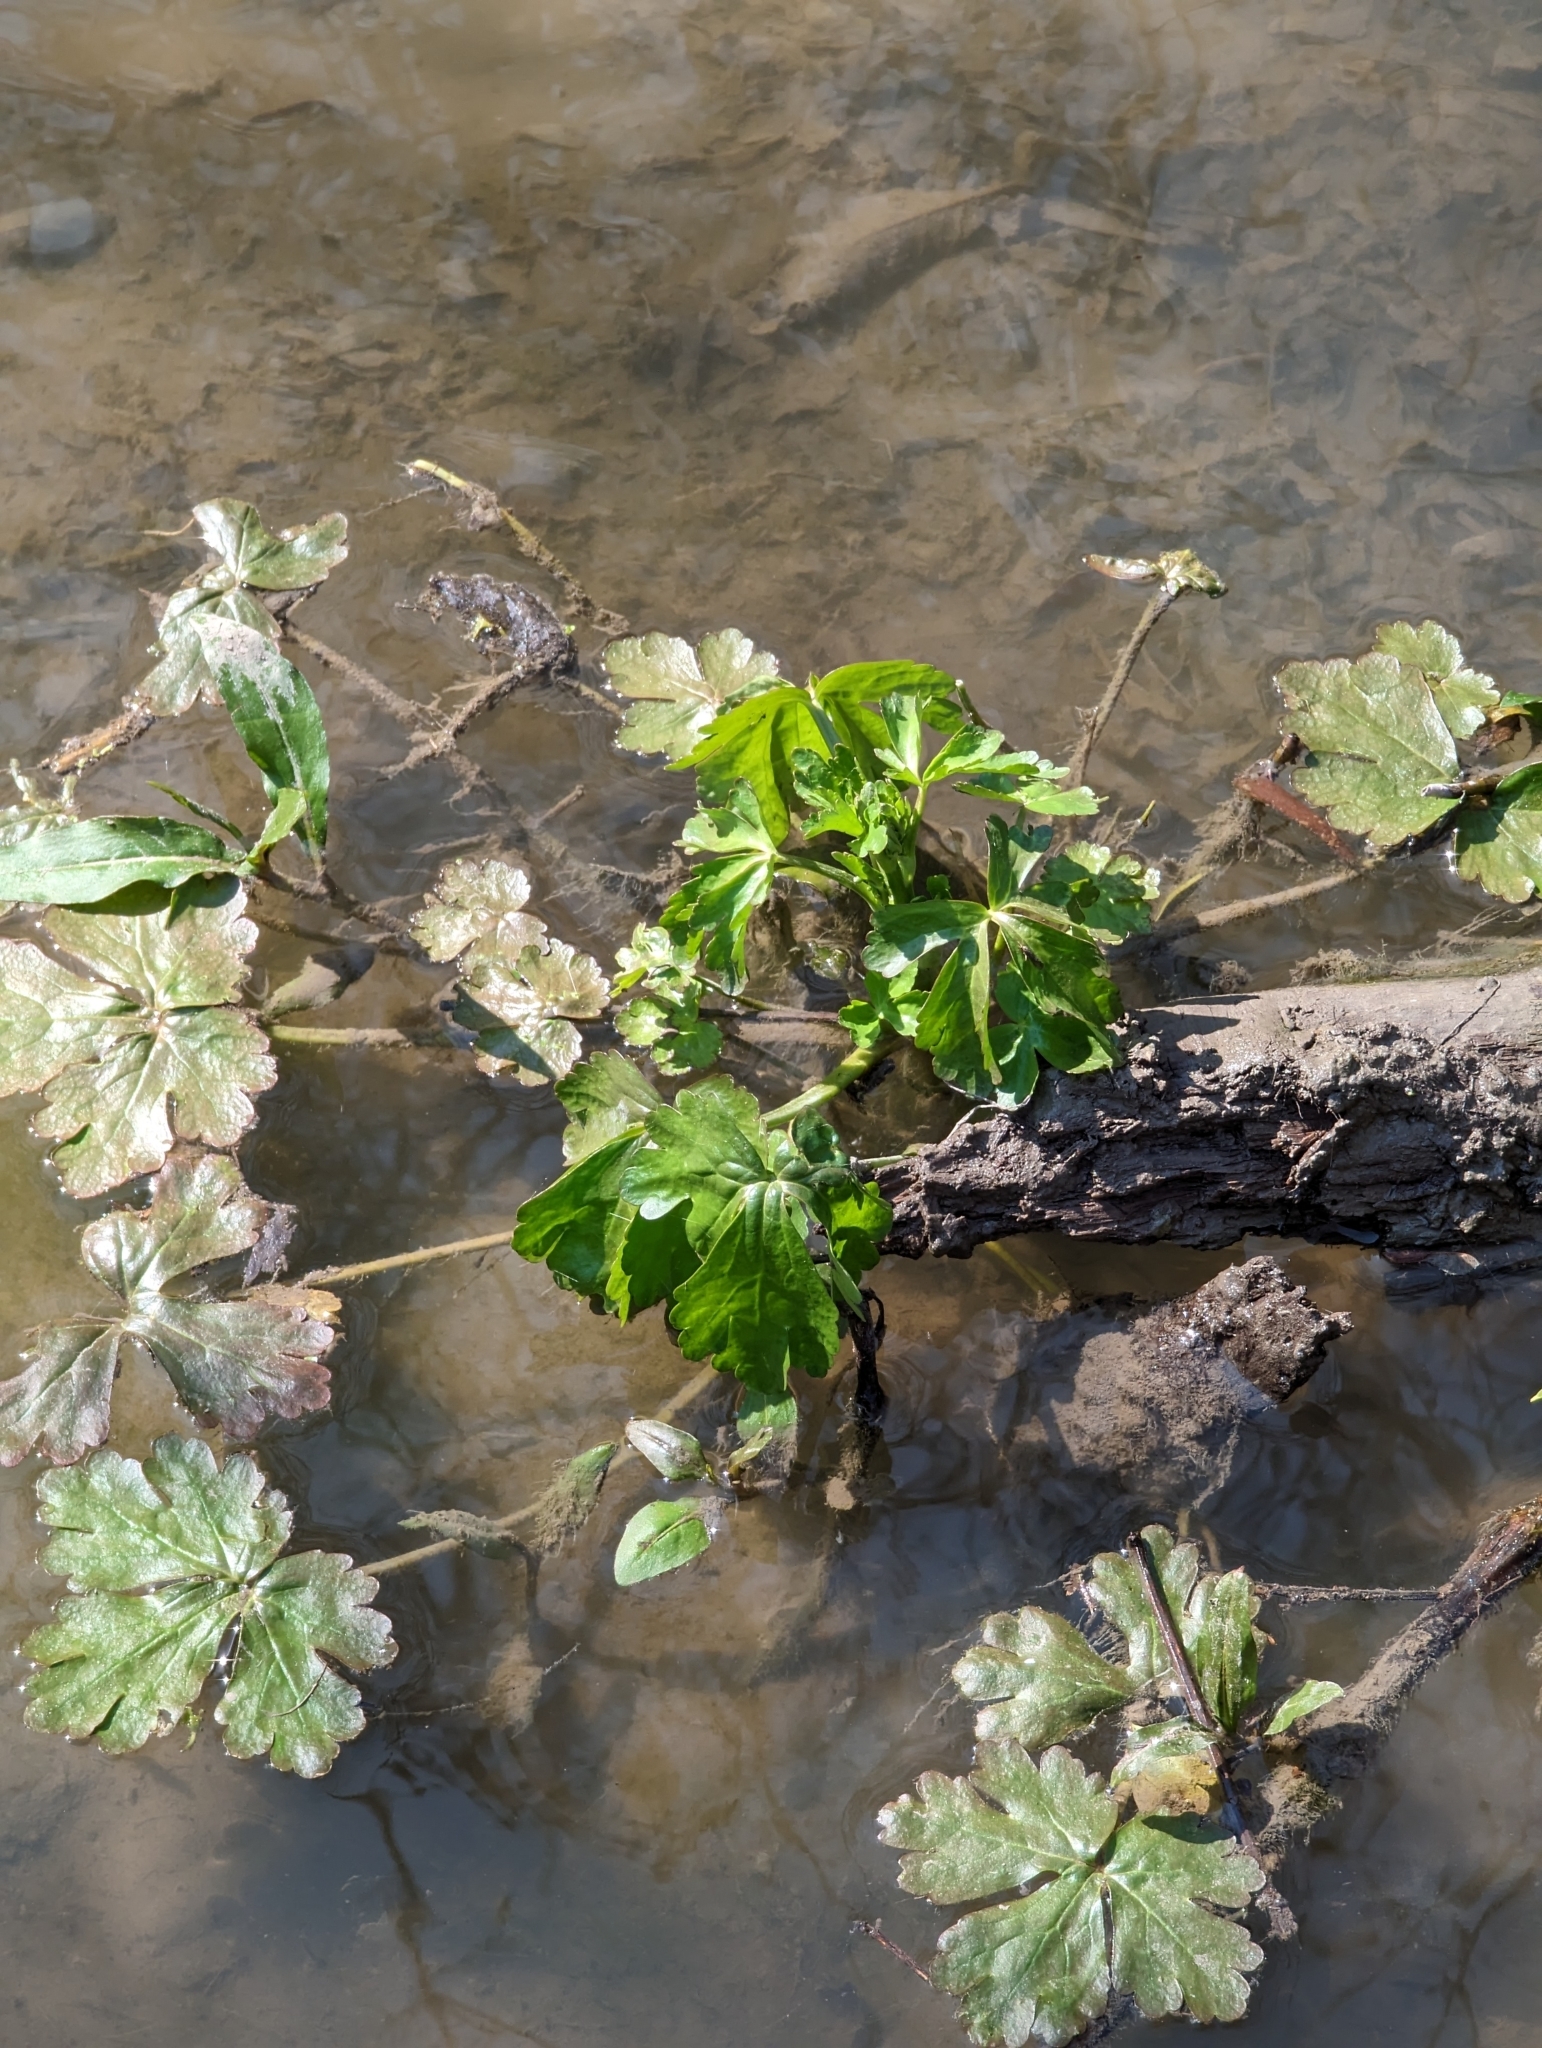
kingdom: Plantae
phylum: Tracheophyta
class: Magnoliopsida
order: Ranunculales
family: Ranunculaceae
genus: Ranunculus
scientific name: Ranunculus sceleratus
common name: Celery-leaved buttercup
